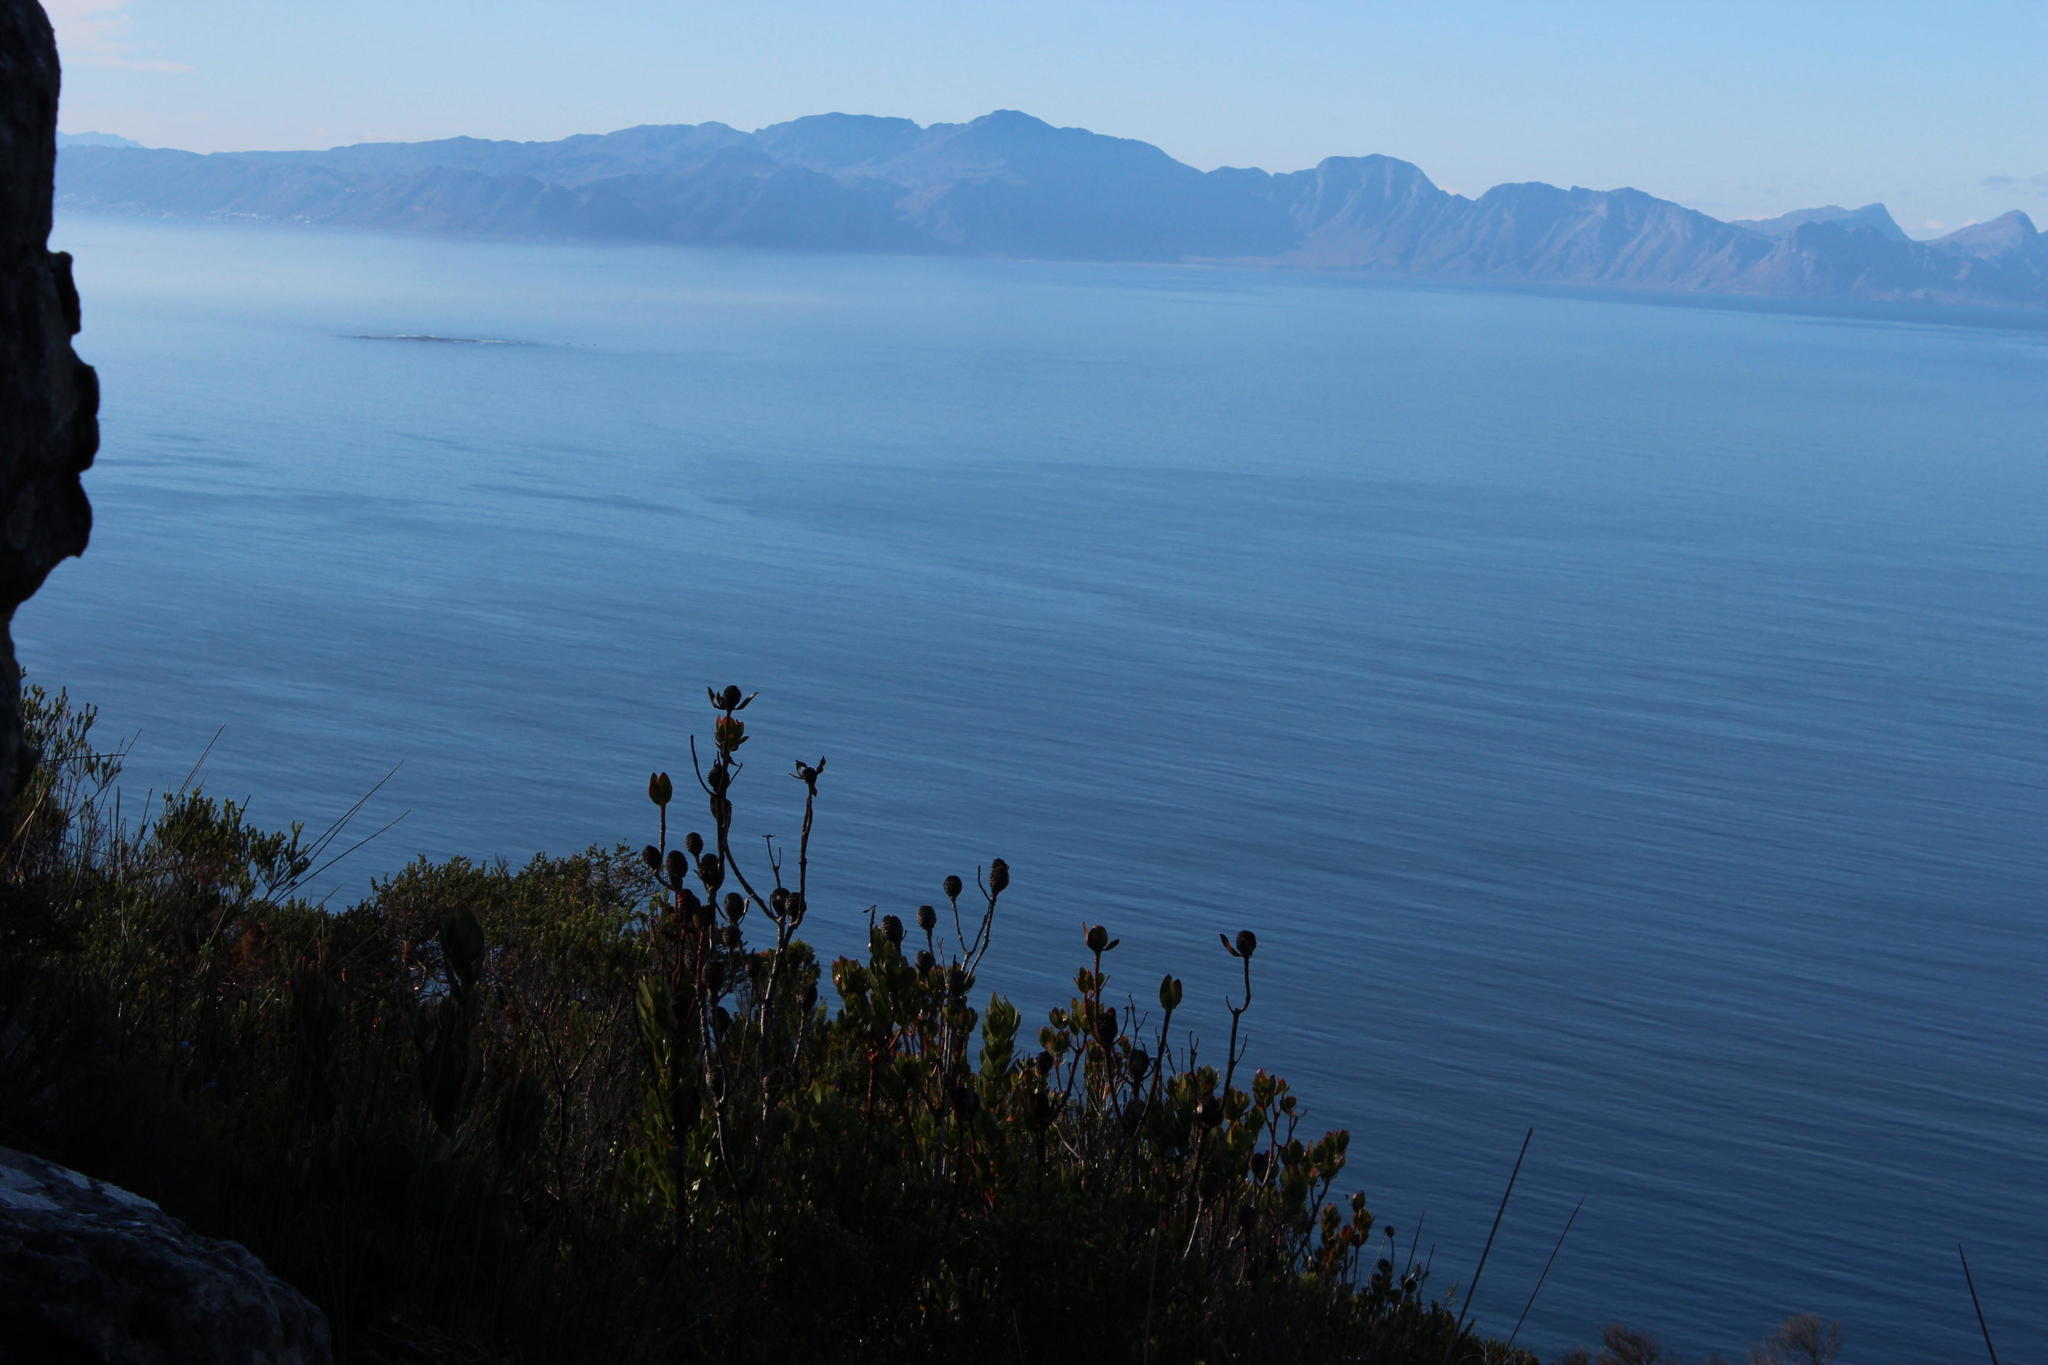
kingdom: Plantae
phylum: Tracheophyta
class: Magnoliopsida
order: Proteales
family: Proteaceae
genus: Leucadendron
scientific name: Leucadendron strobilinum
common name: Mountain rose
